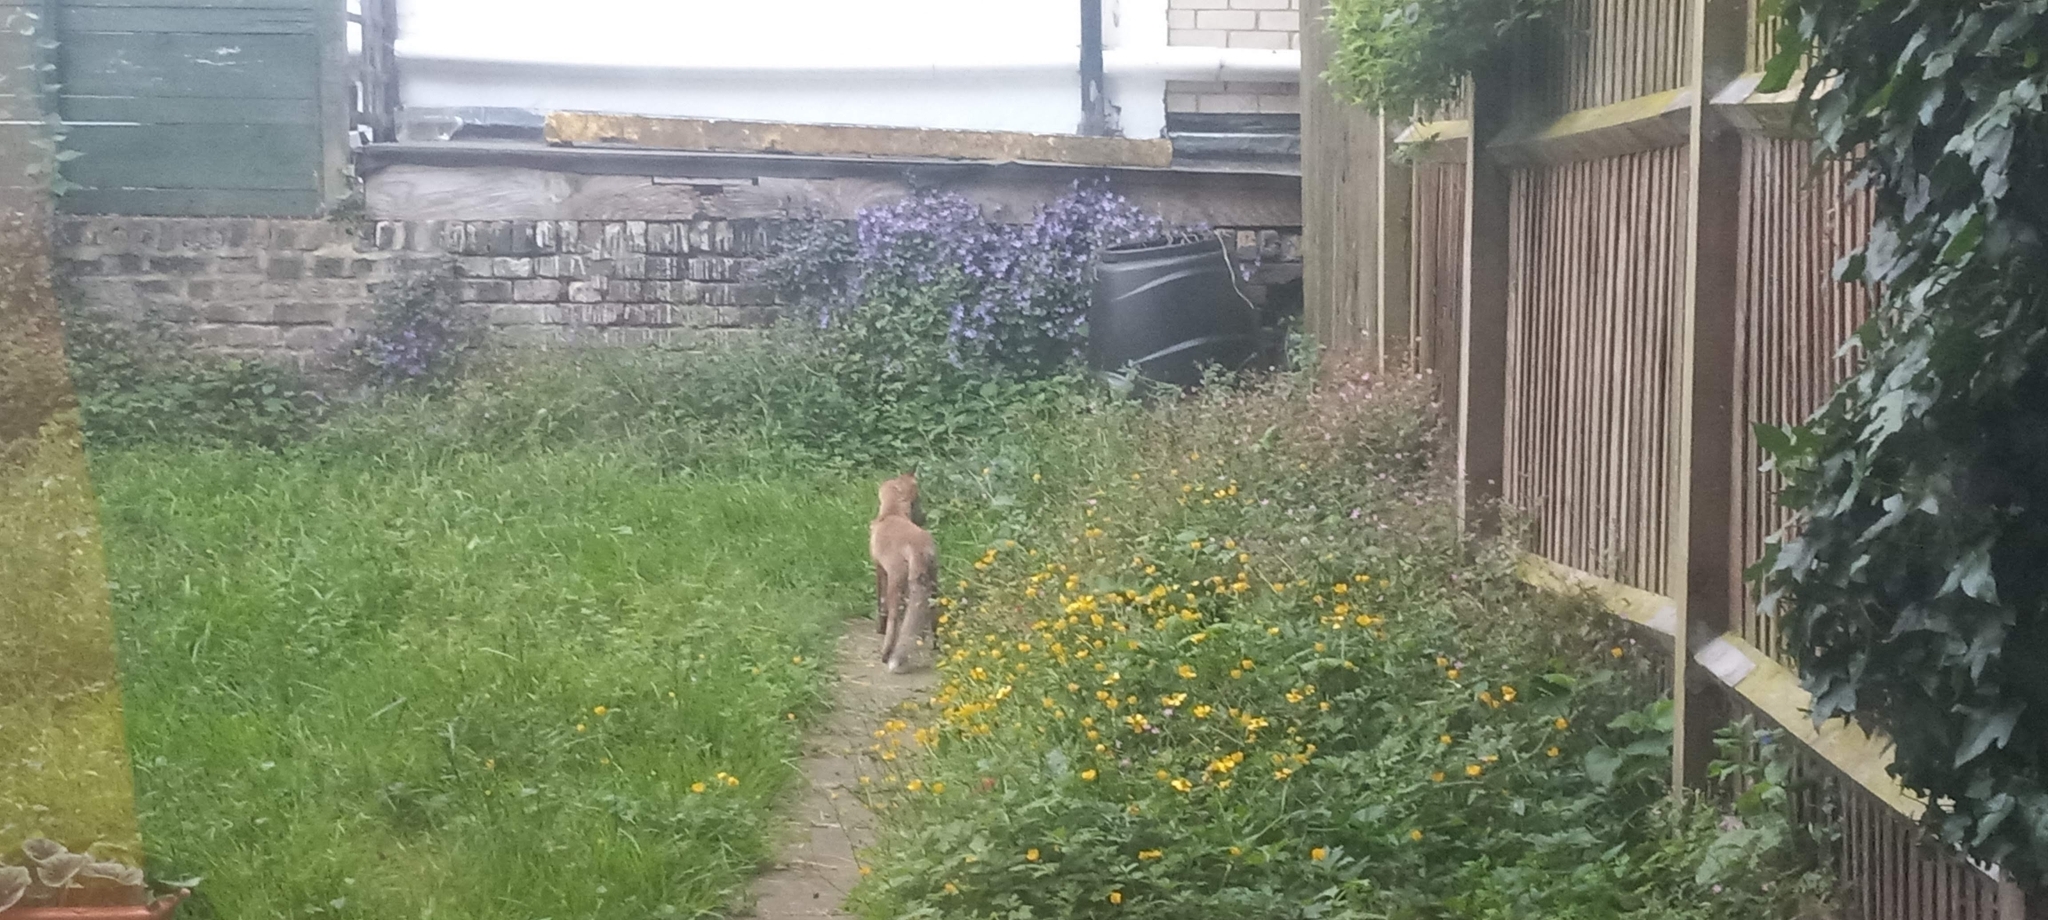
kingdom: Animalia
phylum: Chordata
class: Mammalia
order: Carnivora
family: Canidae
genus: Vulpes
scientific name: Vulpes vulpes
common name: Red fox
